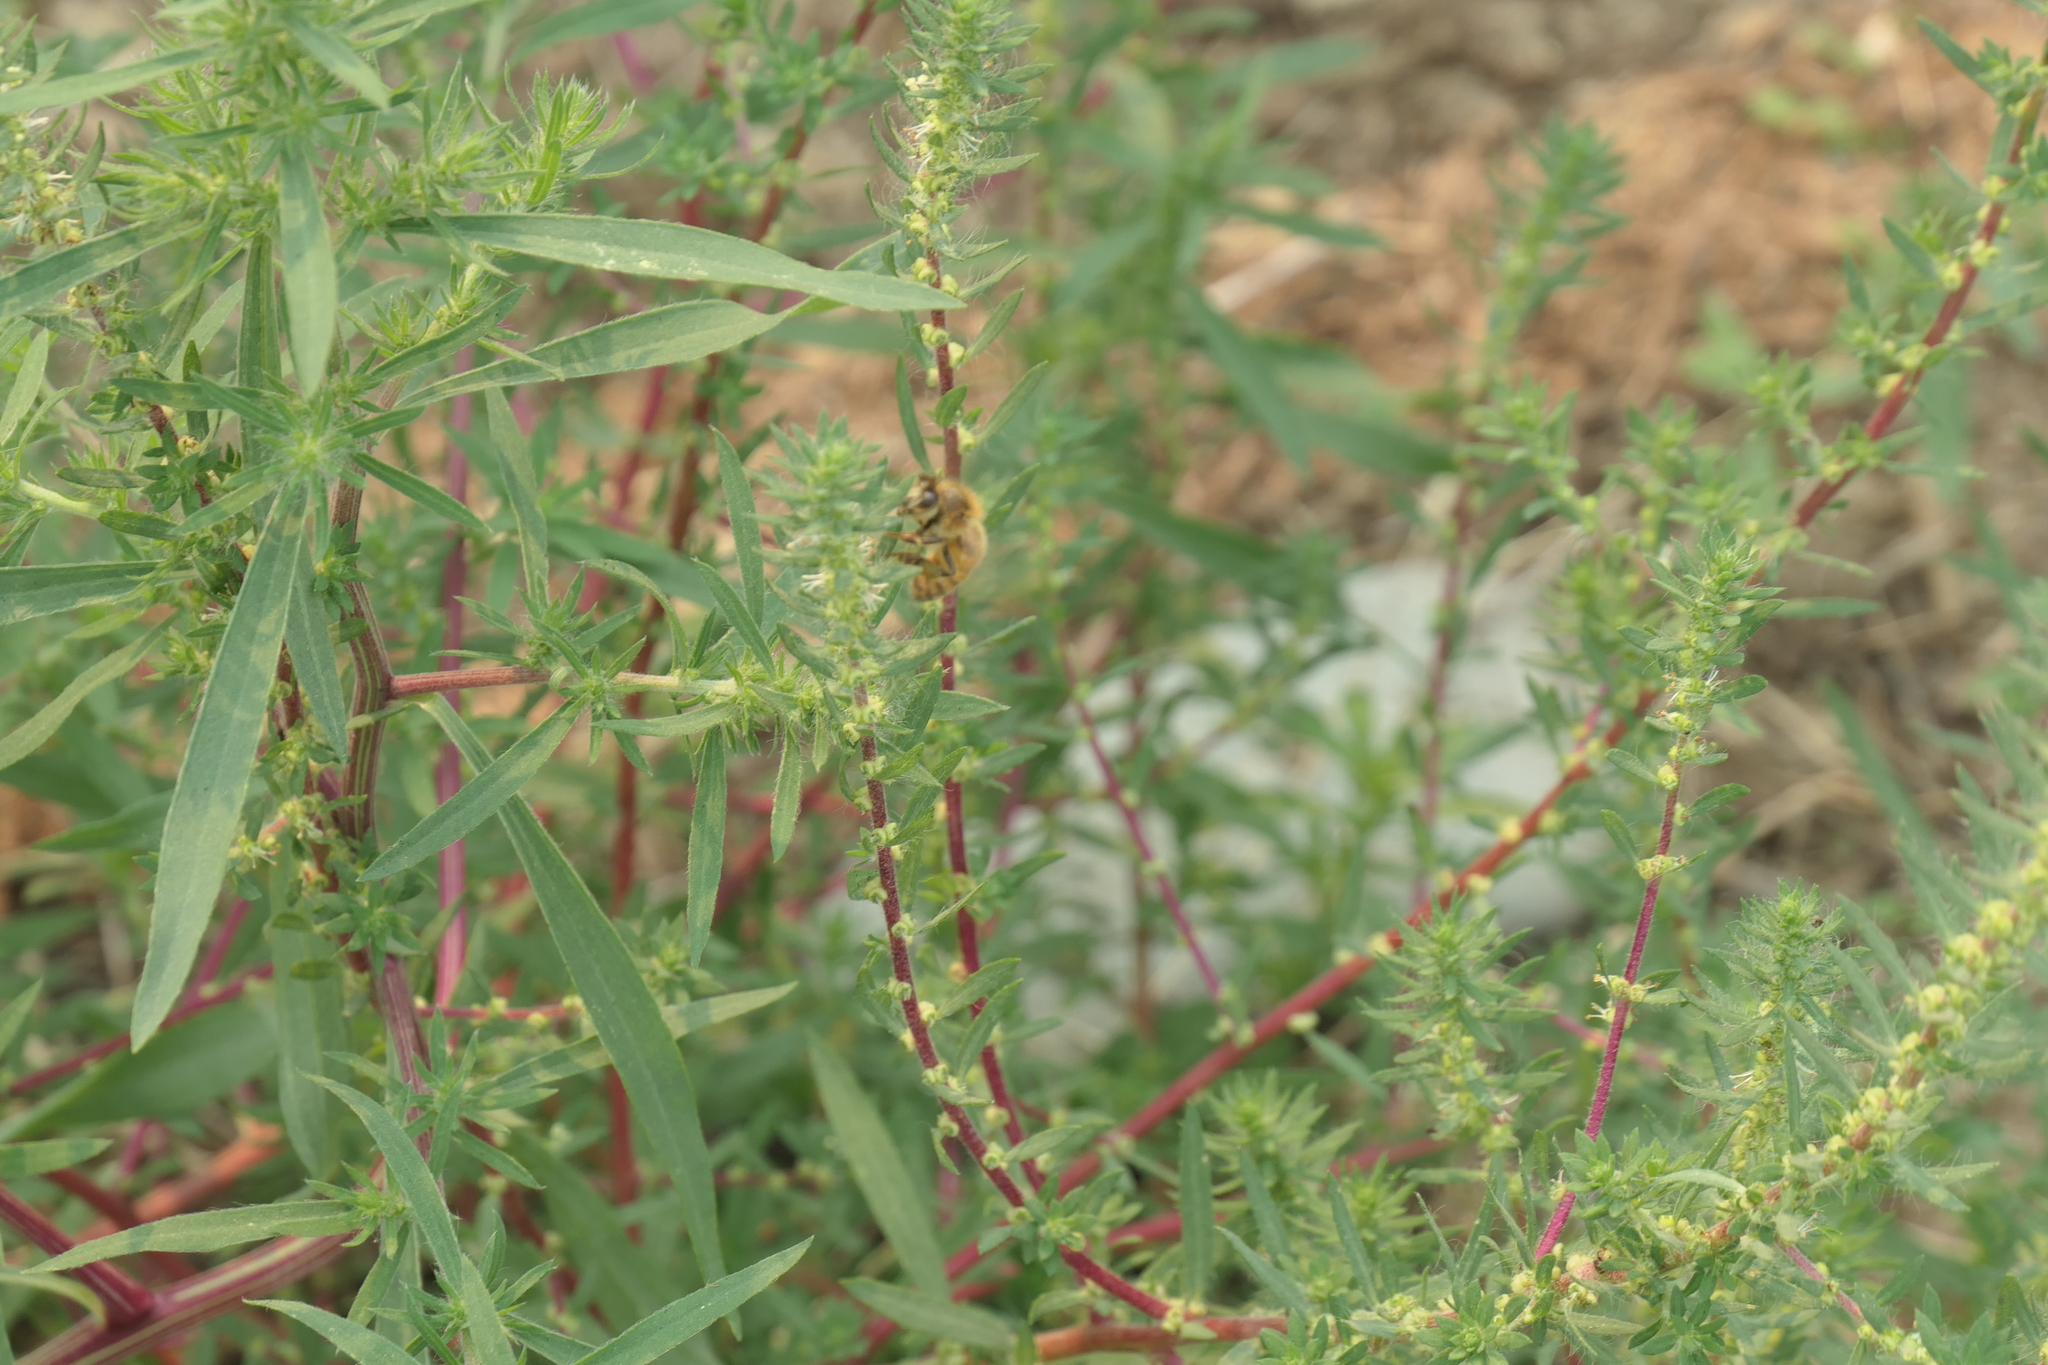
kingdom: Animalia
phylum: Arthropoda
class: Insecta
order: Hymenoptera
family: Apidae
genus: Apis
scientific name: Apis mellifera
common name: Honey bee
